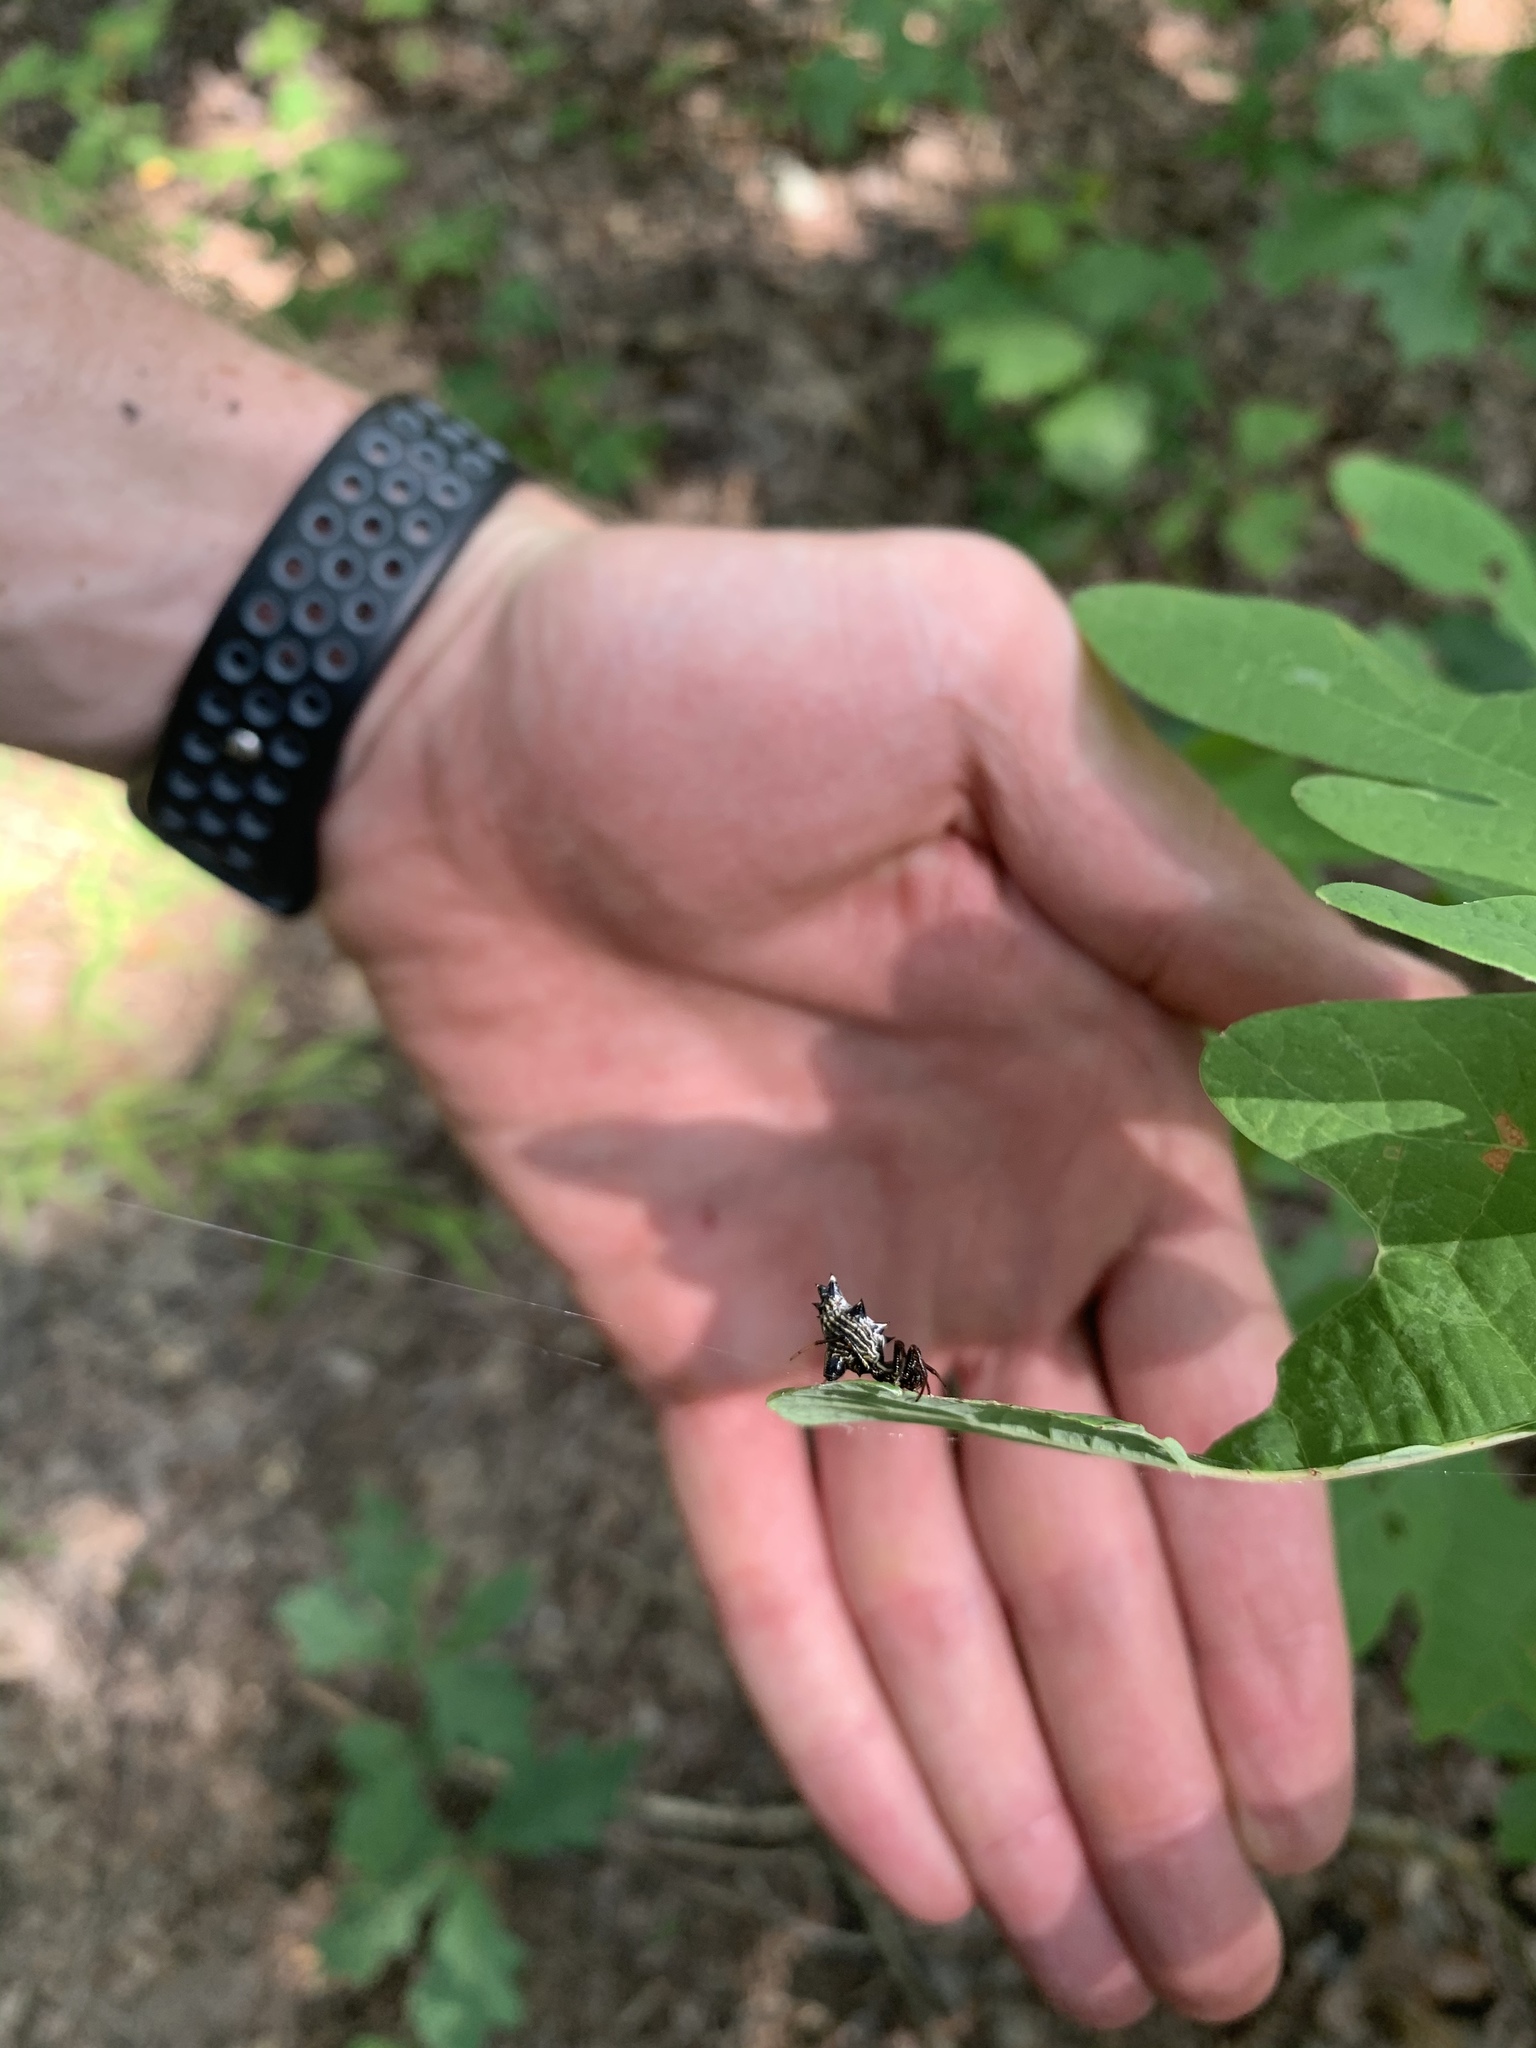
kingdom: Animalia
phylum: Arthropoda
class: Arachnida
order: Araneae
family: Araneidae
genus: Micrathena
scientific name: Micrathena gracilis
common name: Orb weavers
